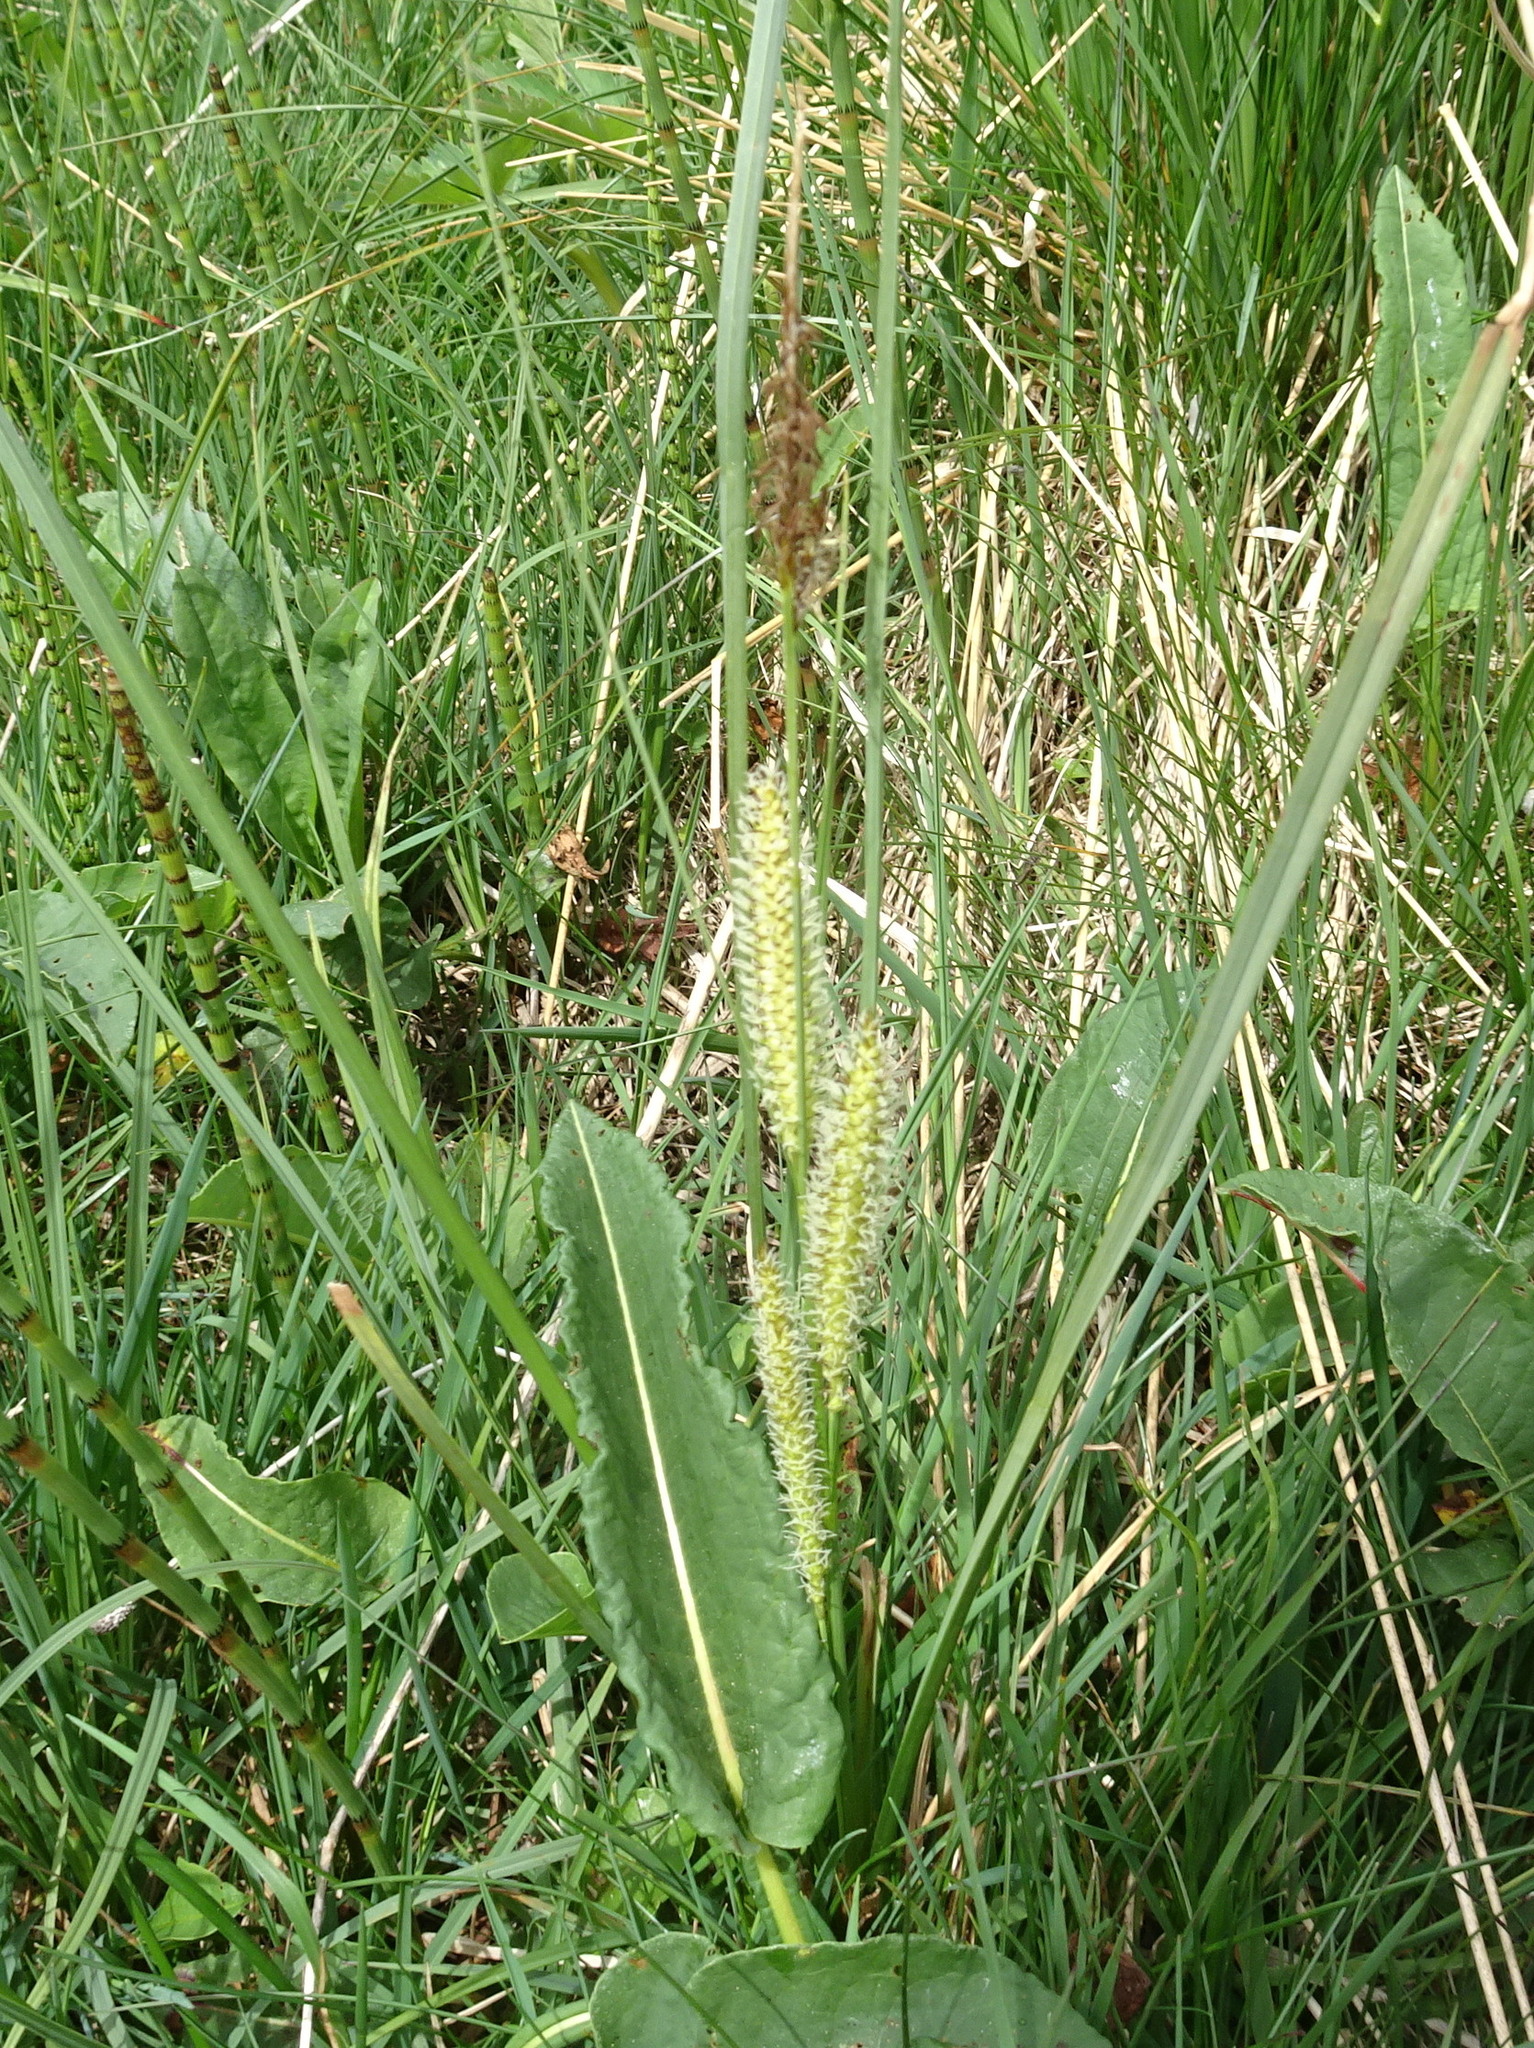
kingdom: Plantae
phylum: Tracheophyta
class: Liliopsida
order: Poales
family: Cyperaceae
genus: Carex
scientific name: Carex rostrata
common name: Bottle sedge
